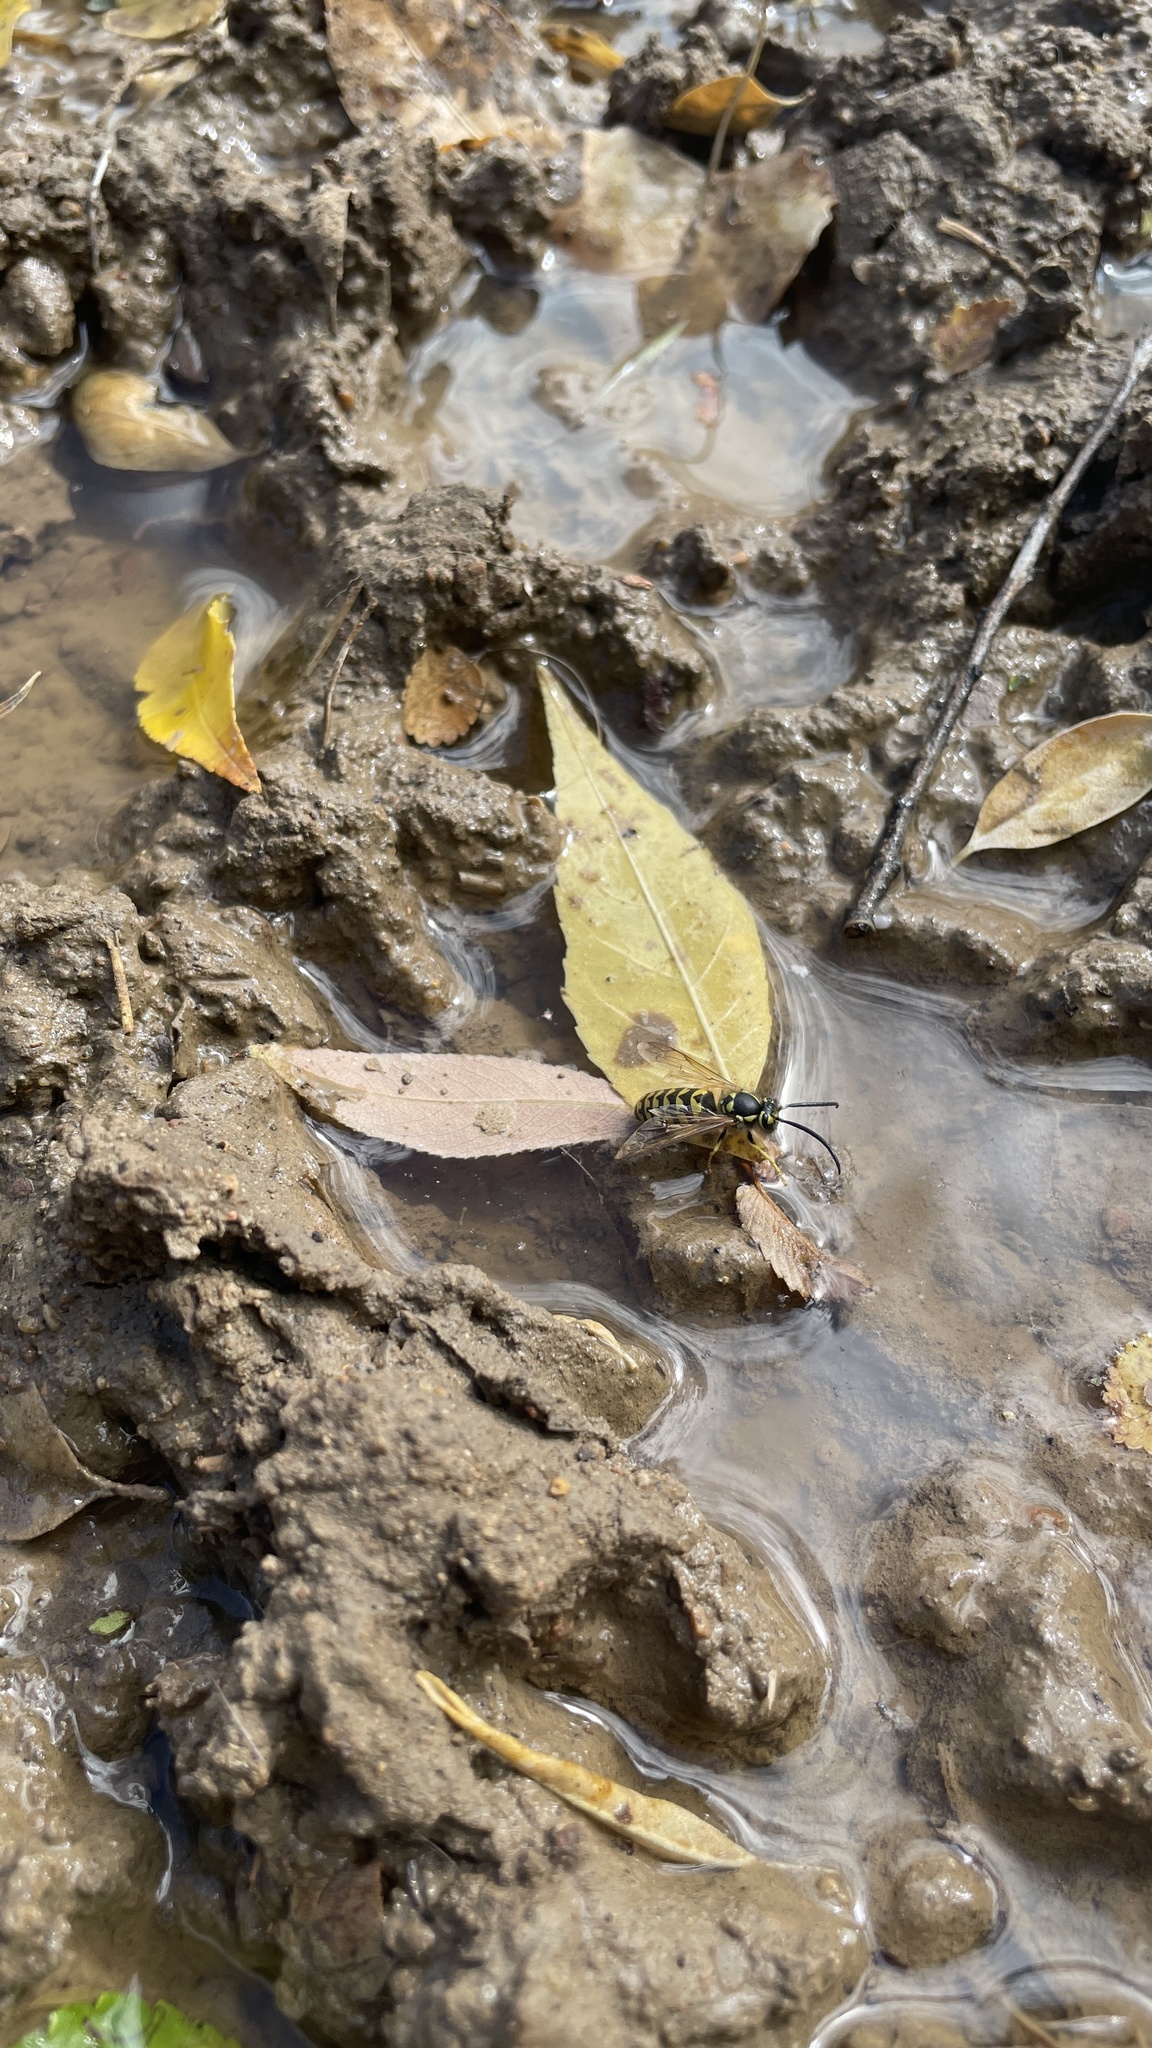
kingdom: Animalia
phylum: Arthropoda
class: Insecta
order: Hymenoptera
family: Vespidae
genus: Vespula
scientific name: Vespula pensylvanica
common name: Western yellowjacket
